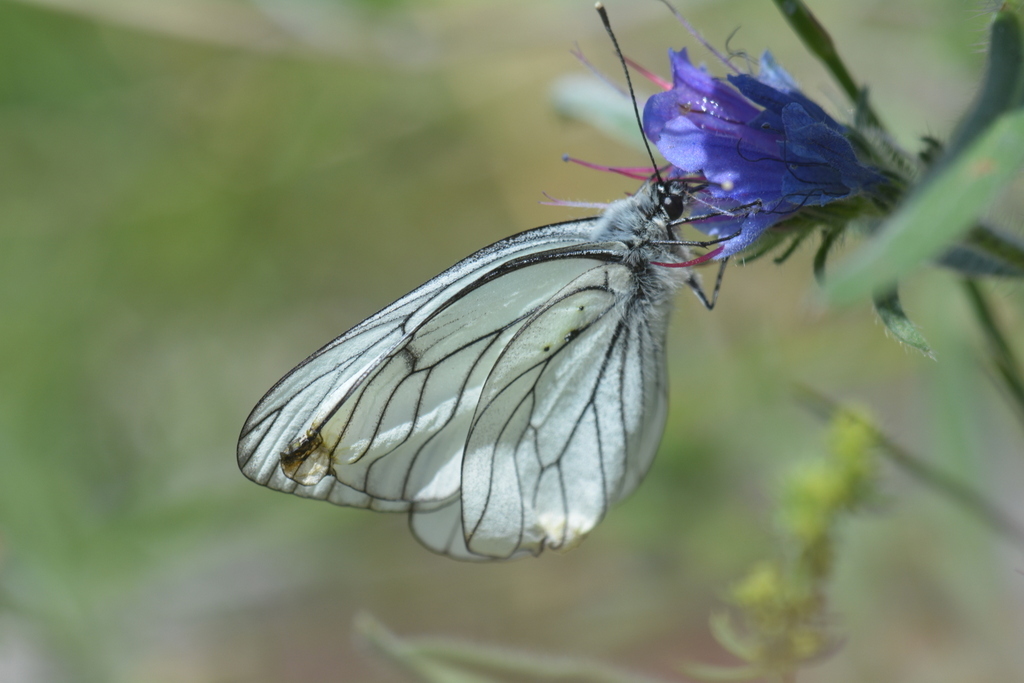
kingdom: Animalia
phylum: Arthropoda
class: Insecta
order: Lepidoptera
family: Pieridae
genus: Aporia
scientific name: Aporia crataegi
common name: Black-veined white
